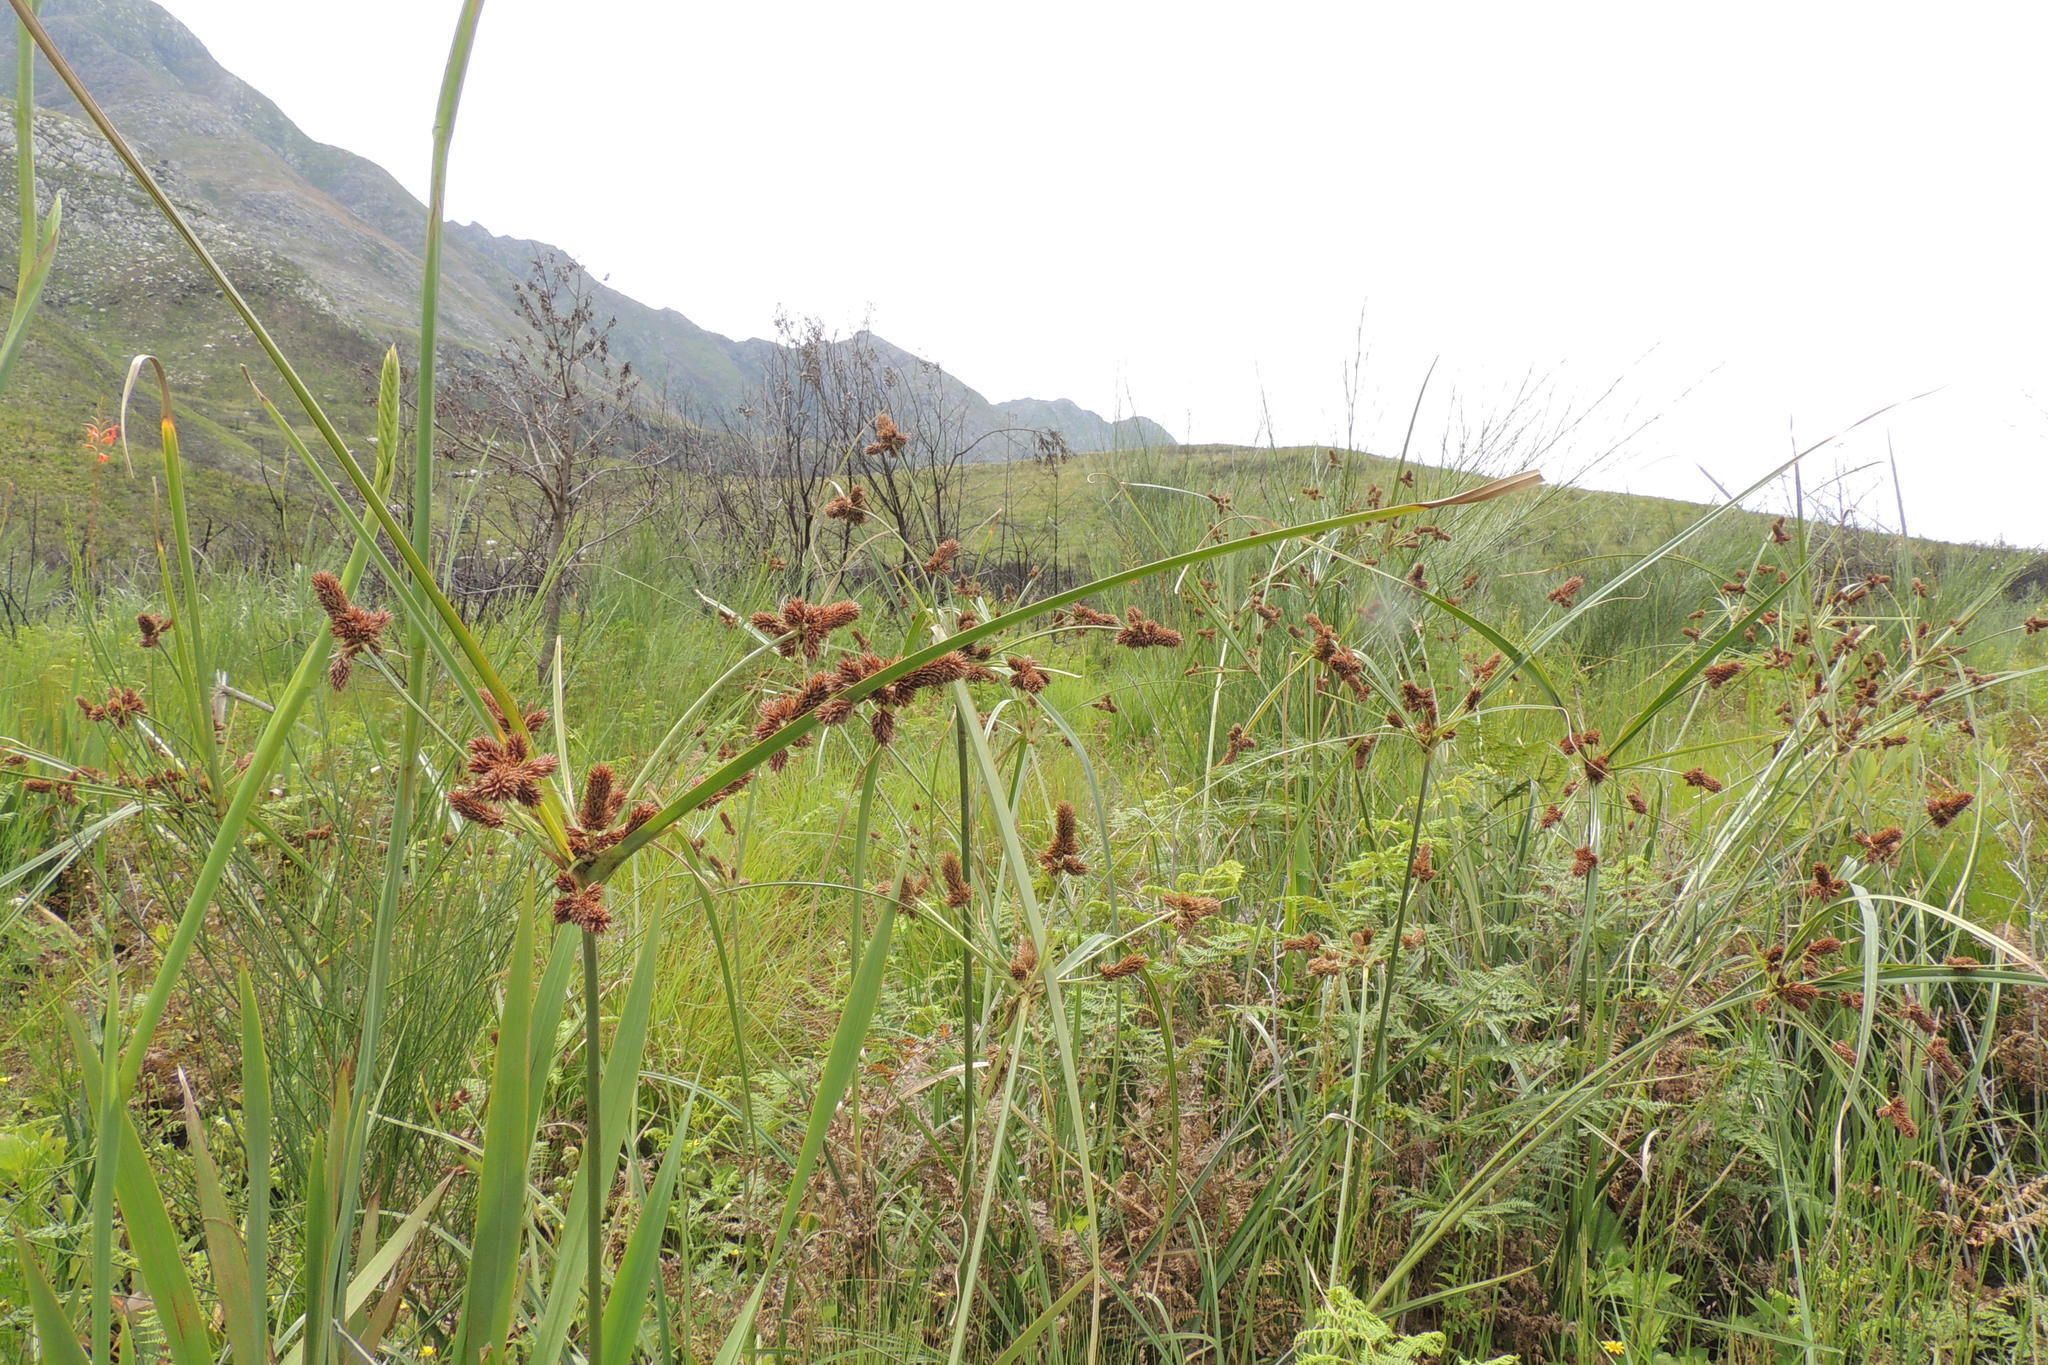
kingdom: Plantae
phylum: Tracheophyta
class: Liliopsida
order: Poales
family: Cyperaceae
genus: Cyperus
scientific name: Cyperus thunbergii
